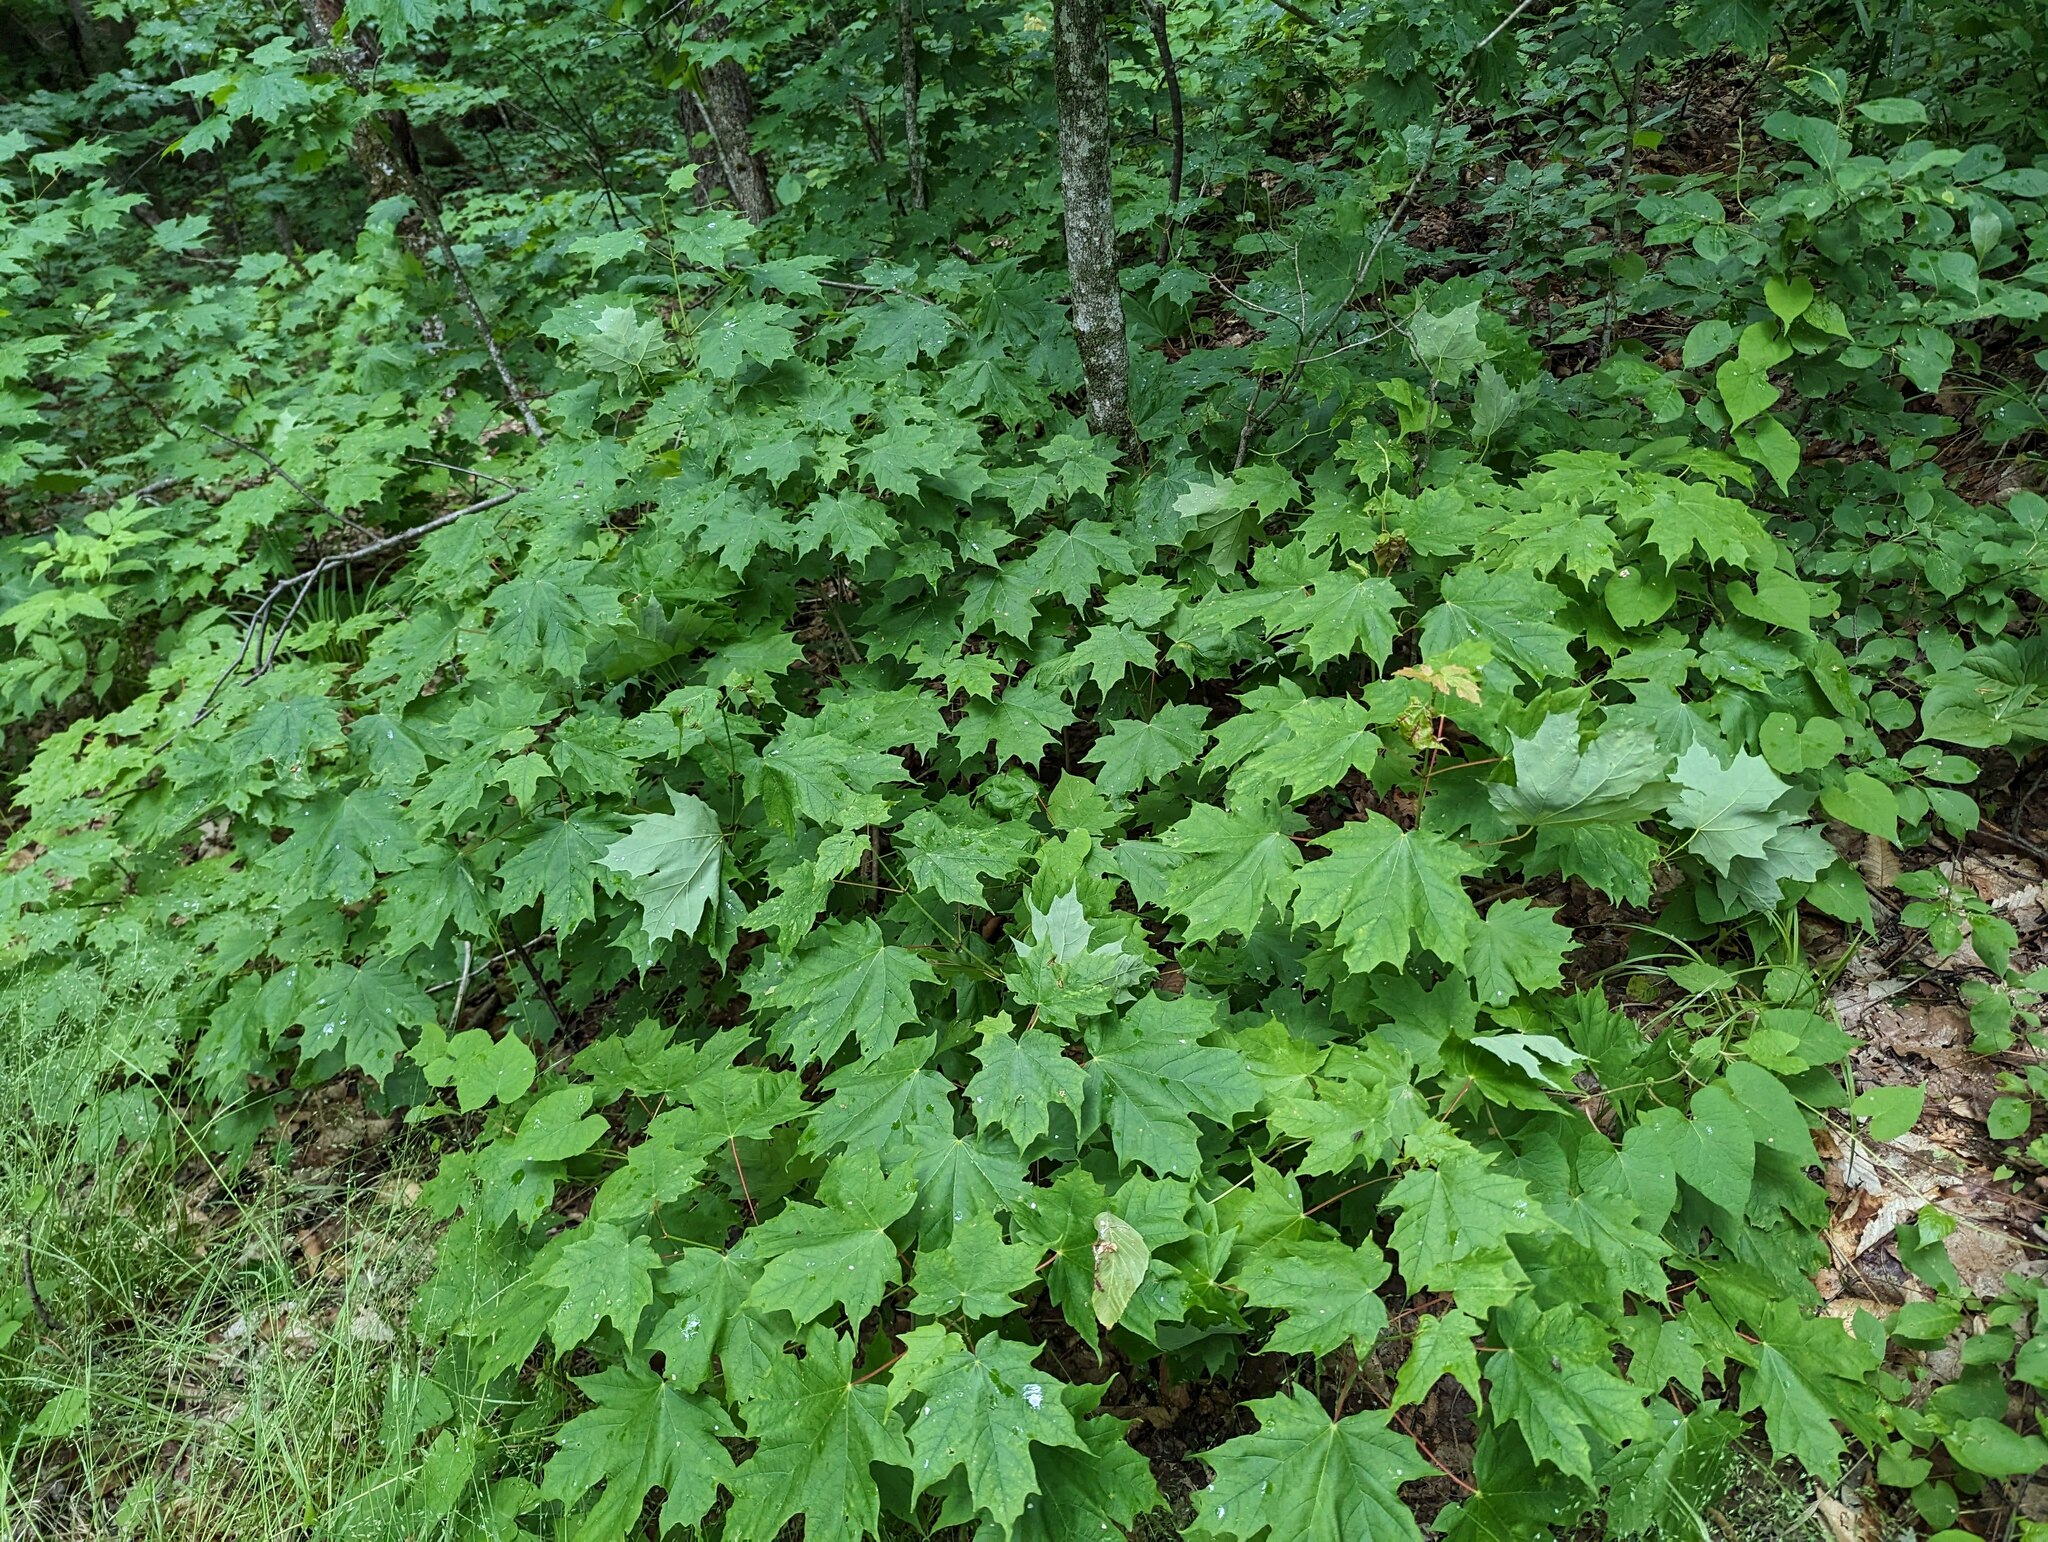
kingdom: Plantae
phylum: Tracheophyta
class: Magnoliopsida
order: Sapindales
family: Sapindaceae
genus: Acer
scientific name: Acer saccharum
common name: Sugar maple
